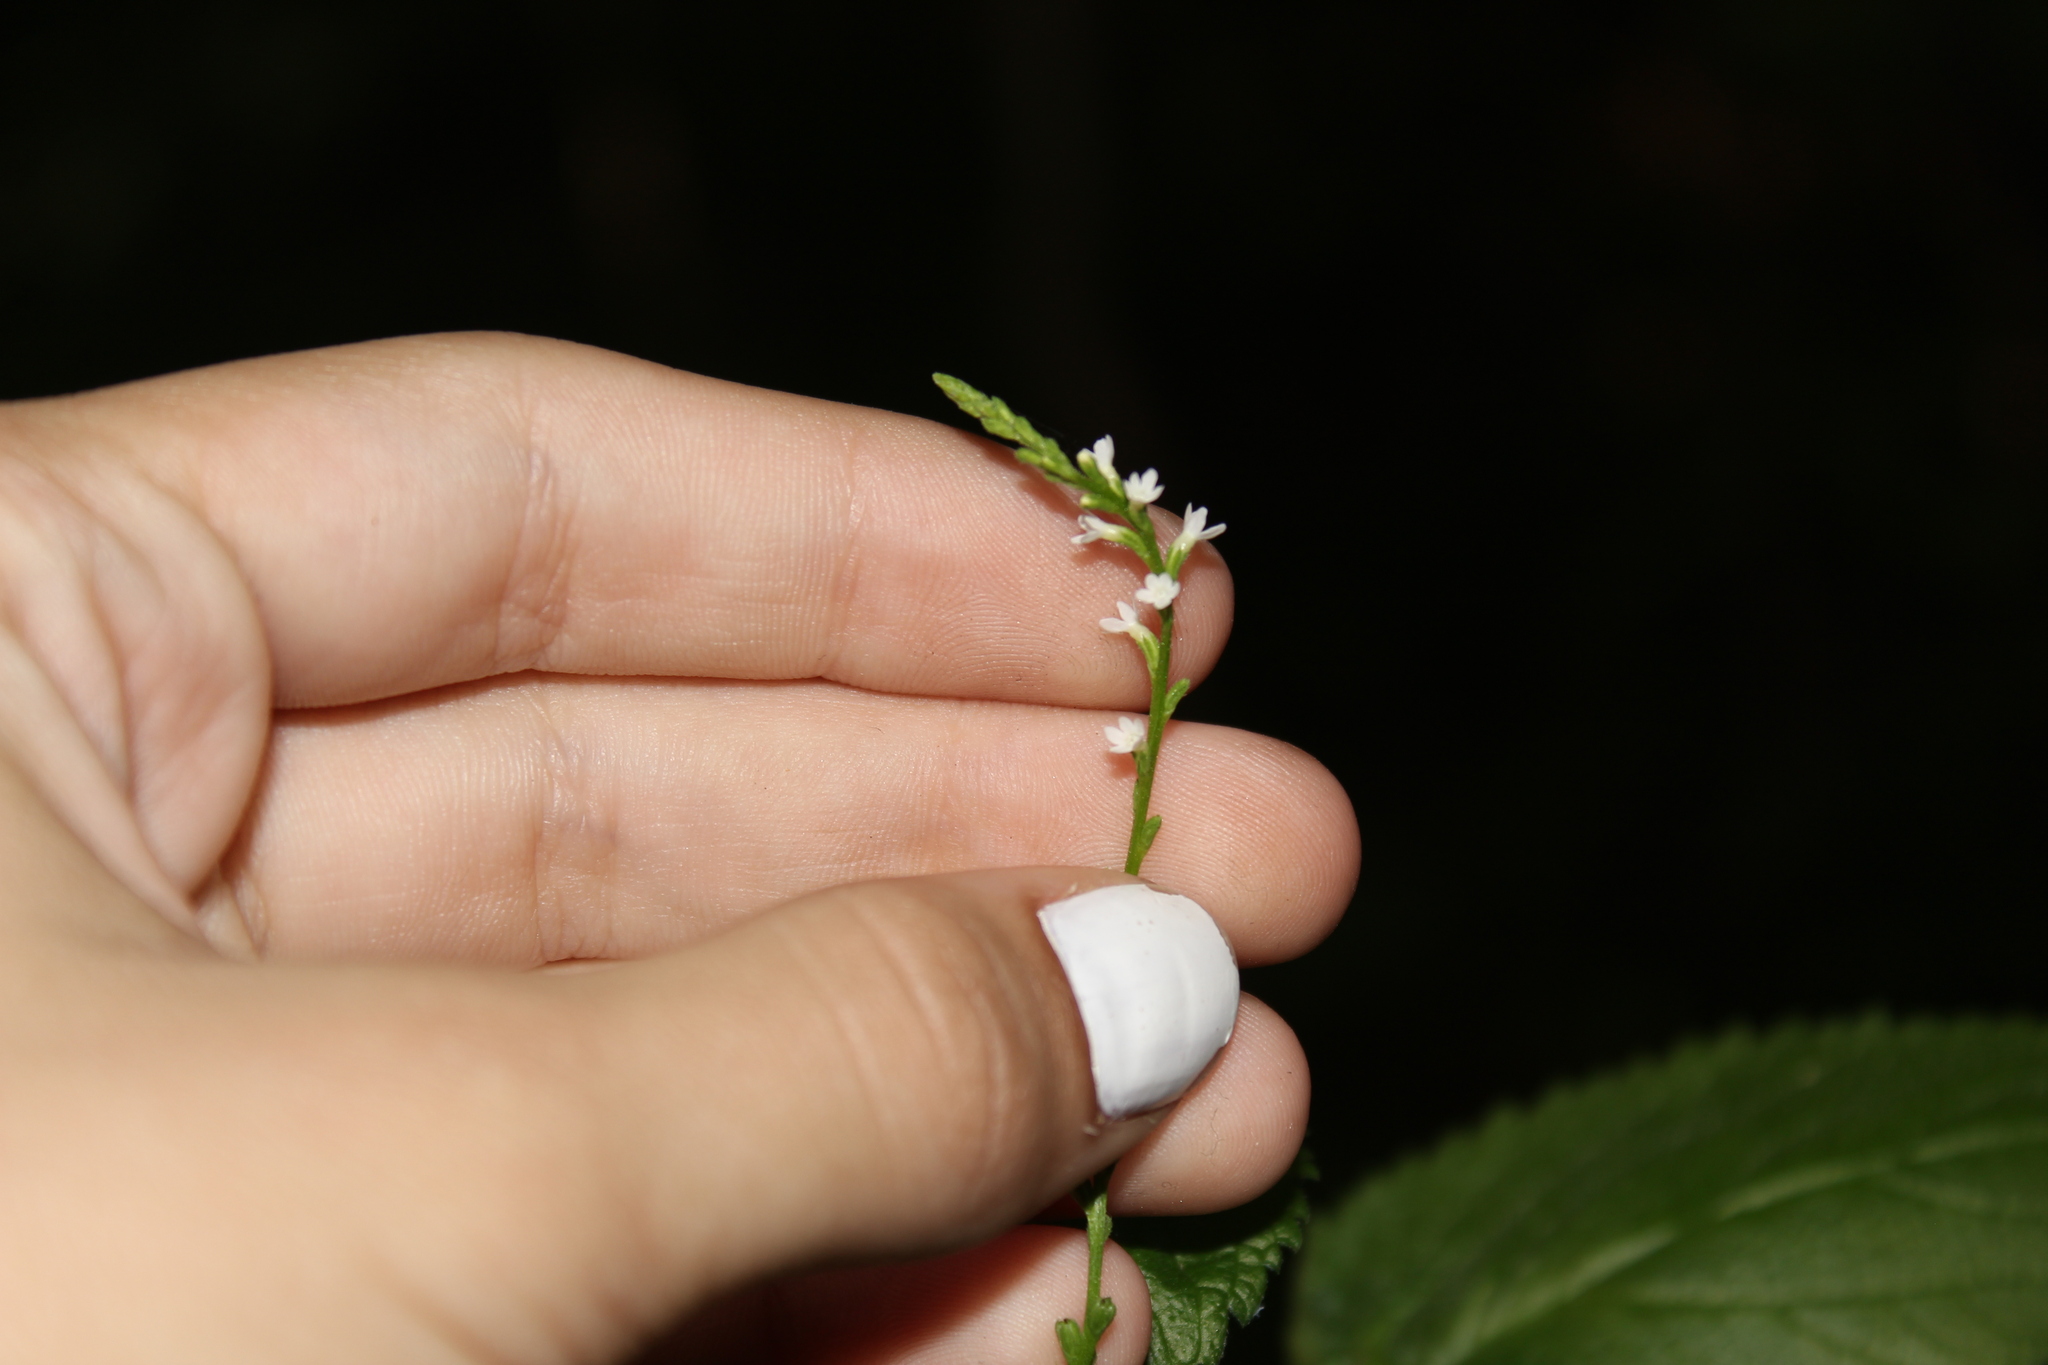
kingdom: Plantae
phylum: Tracheophyta
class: Magnoliopsida
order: Lamiales
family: Verbenaceae
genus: Verbena
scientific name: Verbena urticifolia
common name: Nettle-leaved vervain
